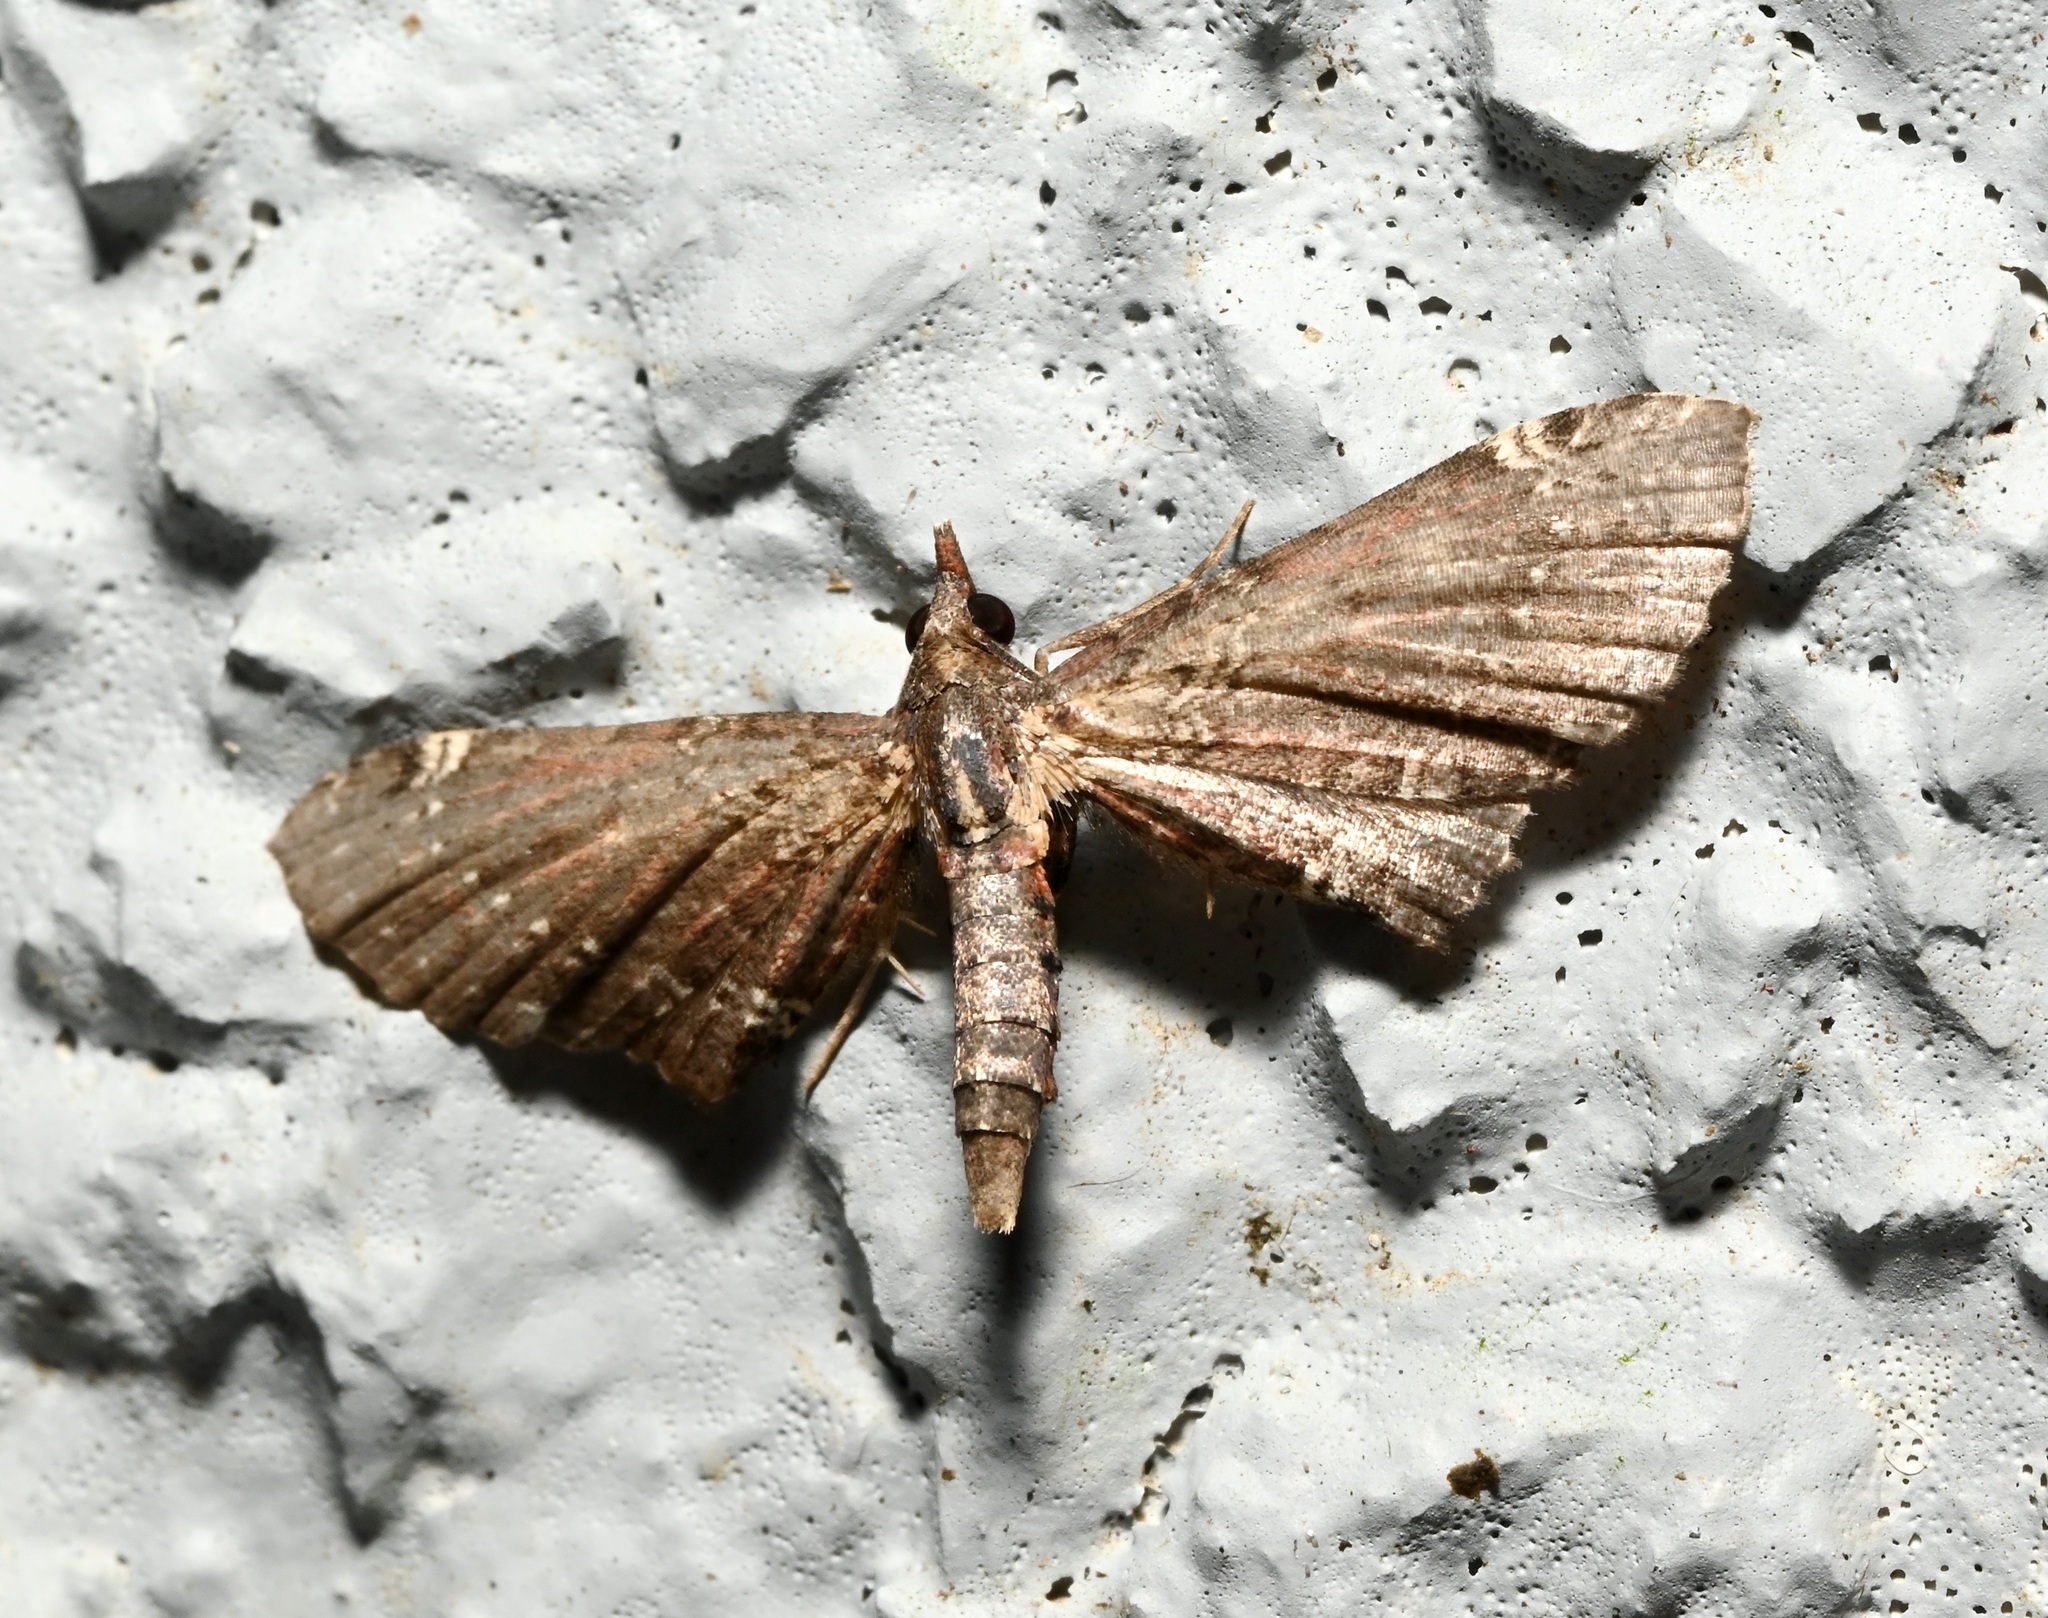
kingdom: Animalia
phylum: Arthropoda
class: Insecta
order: Lepidoptera
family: Geometridae
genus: Eupithecia
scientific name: Eupithecia rigida
